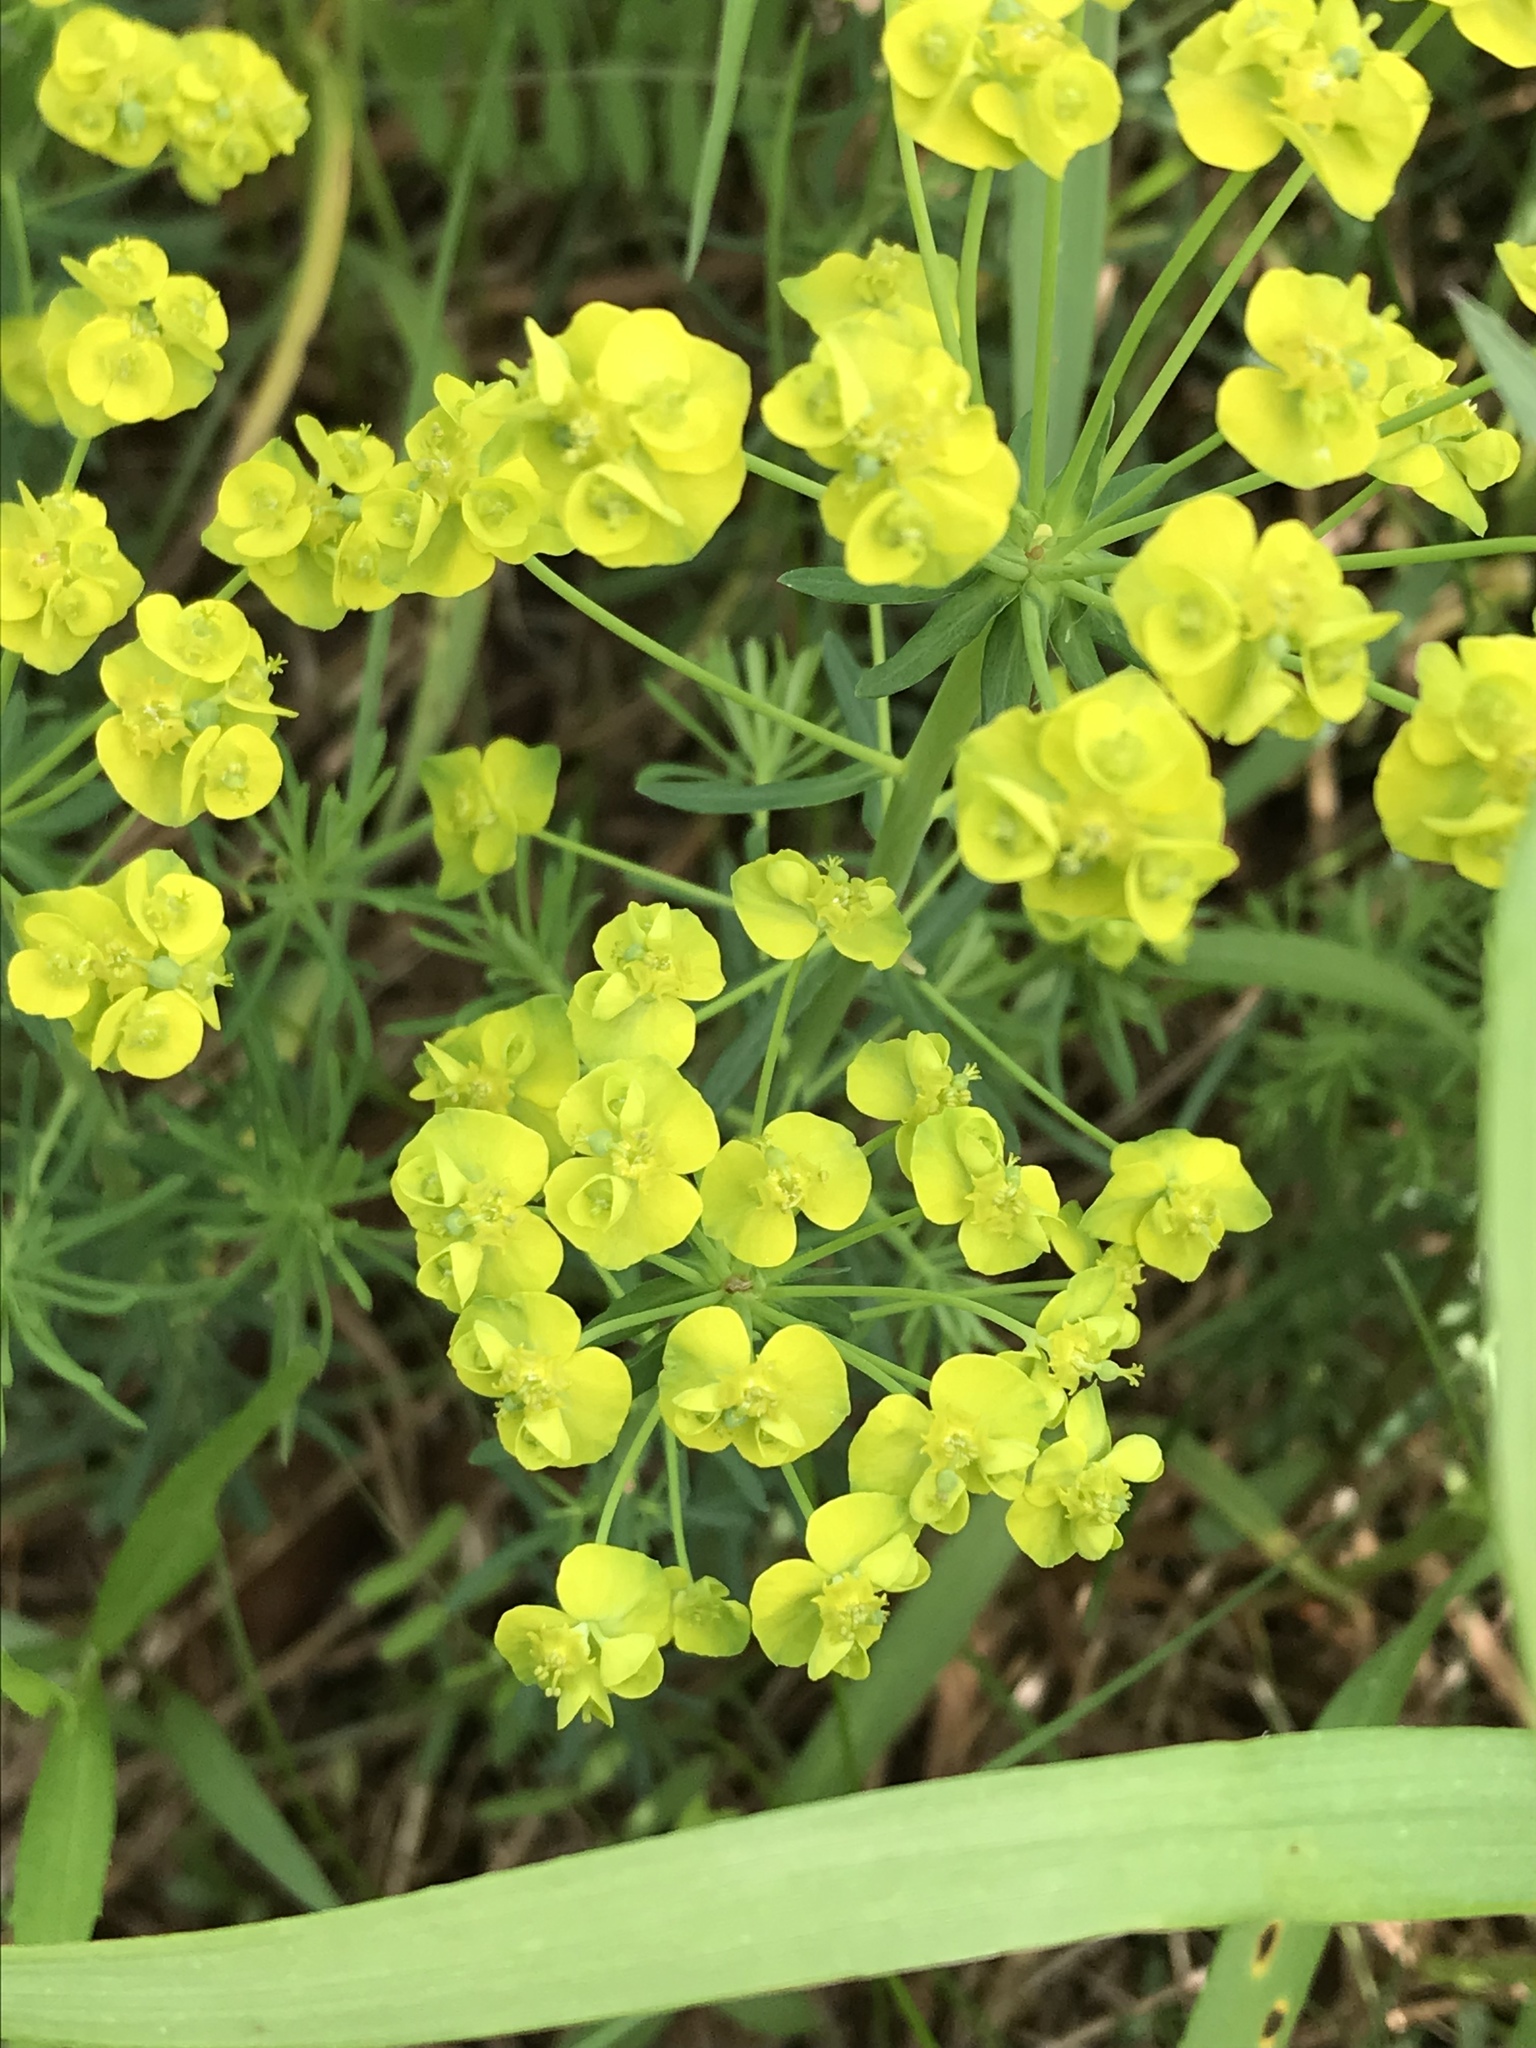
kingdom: Plantae
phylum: Tracheophyta
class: Magnoliopsida
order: Malpighiales
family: Euphorbiaceae
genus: Euphorbia
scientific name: Euphorbia cyparissias
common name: Cypress spurge
